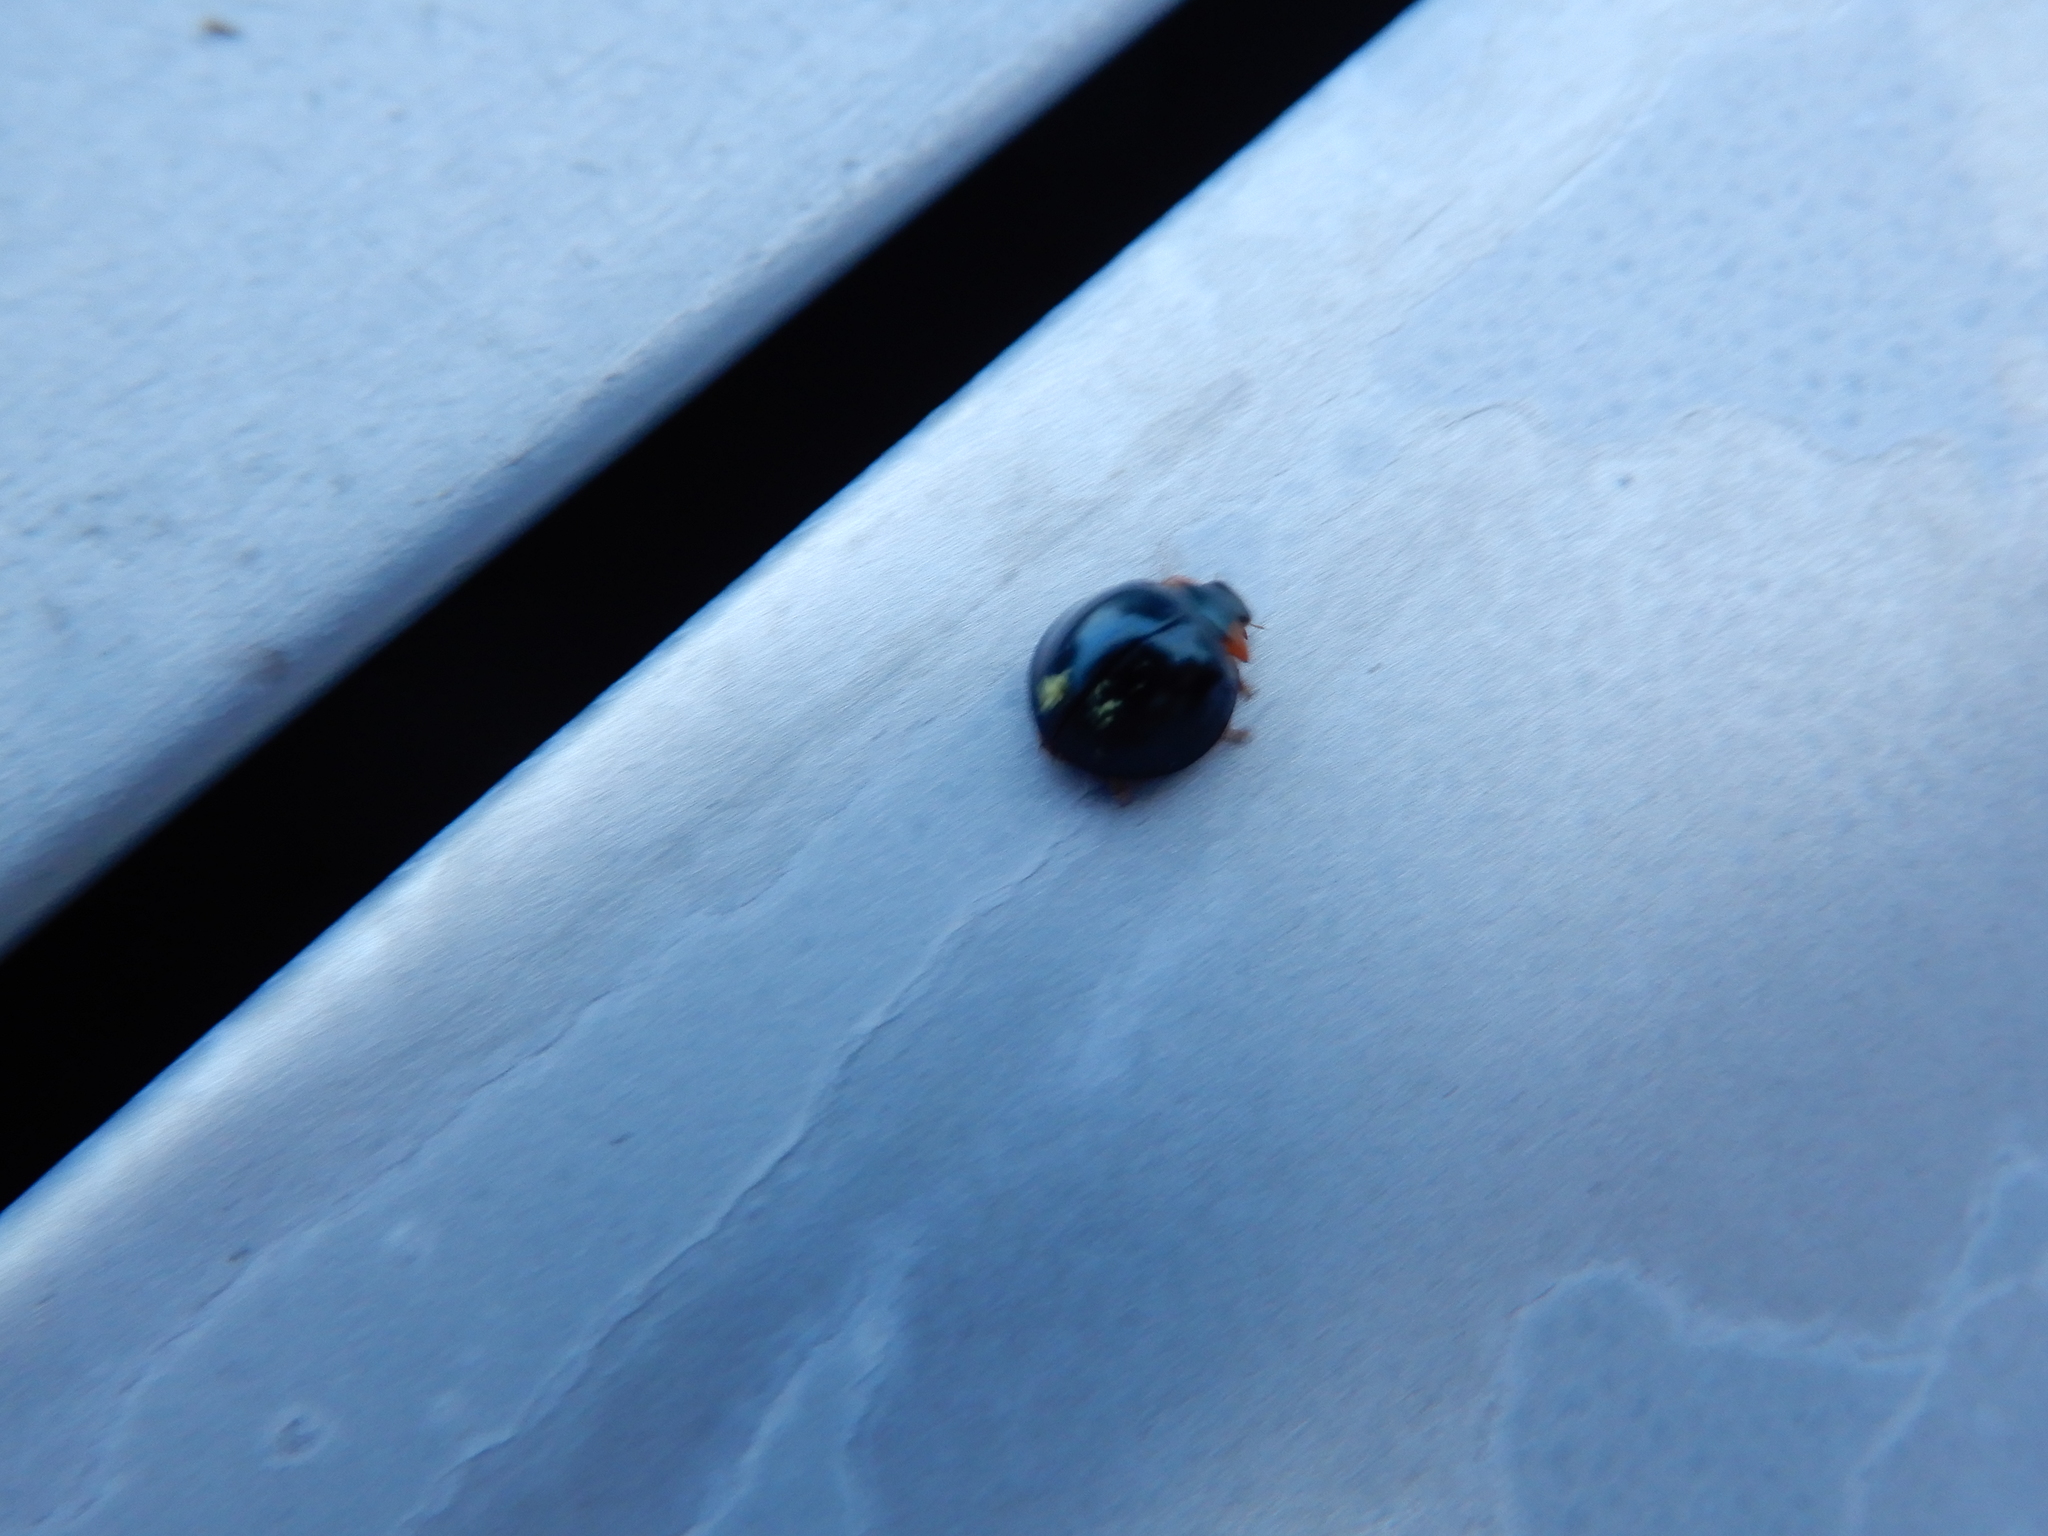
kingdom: Animalia
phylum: Arthropoda
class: Insecta
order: Coleoptera
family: Coccinellidae
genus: Curinus
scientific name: Curinus coeruleus
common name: Ladybird beetle
